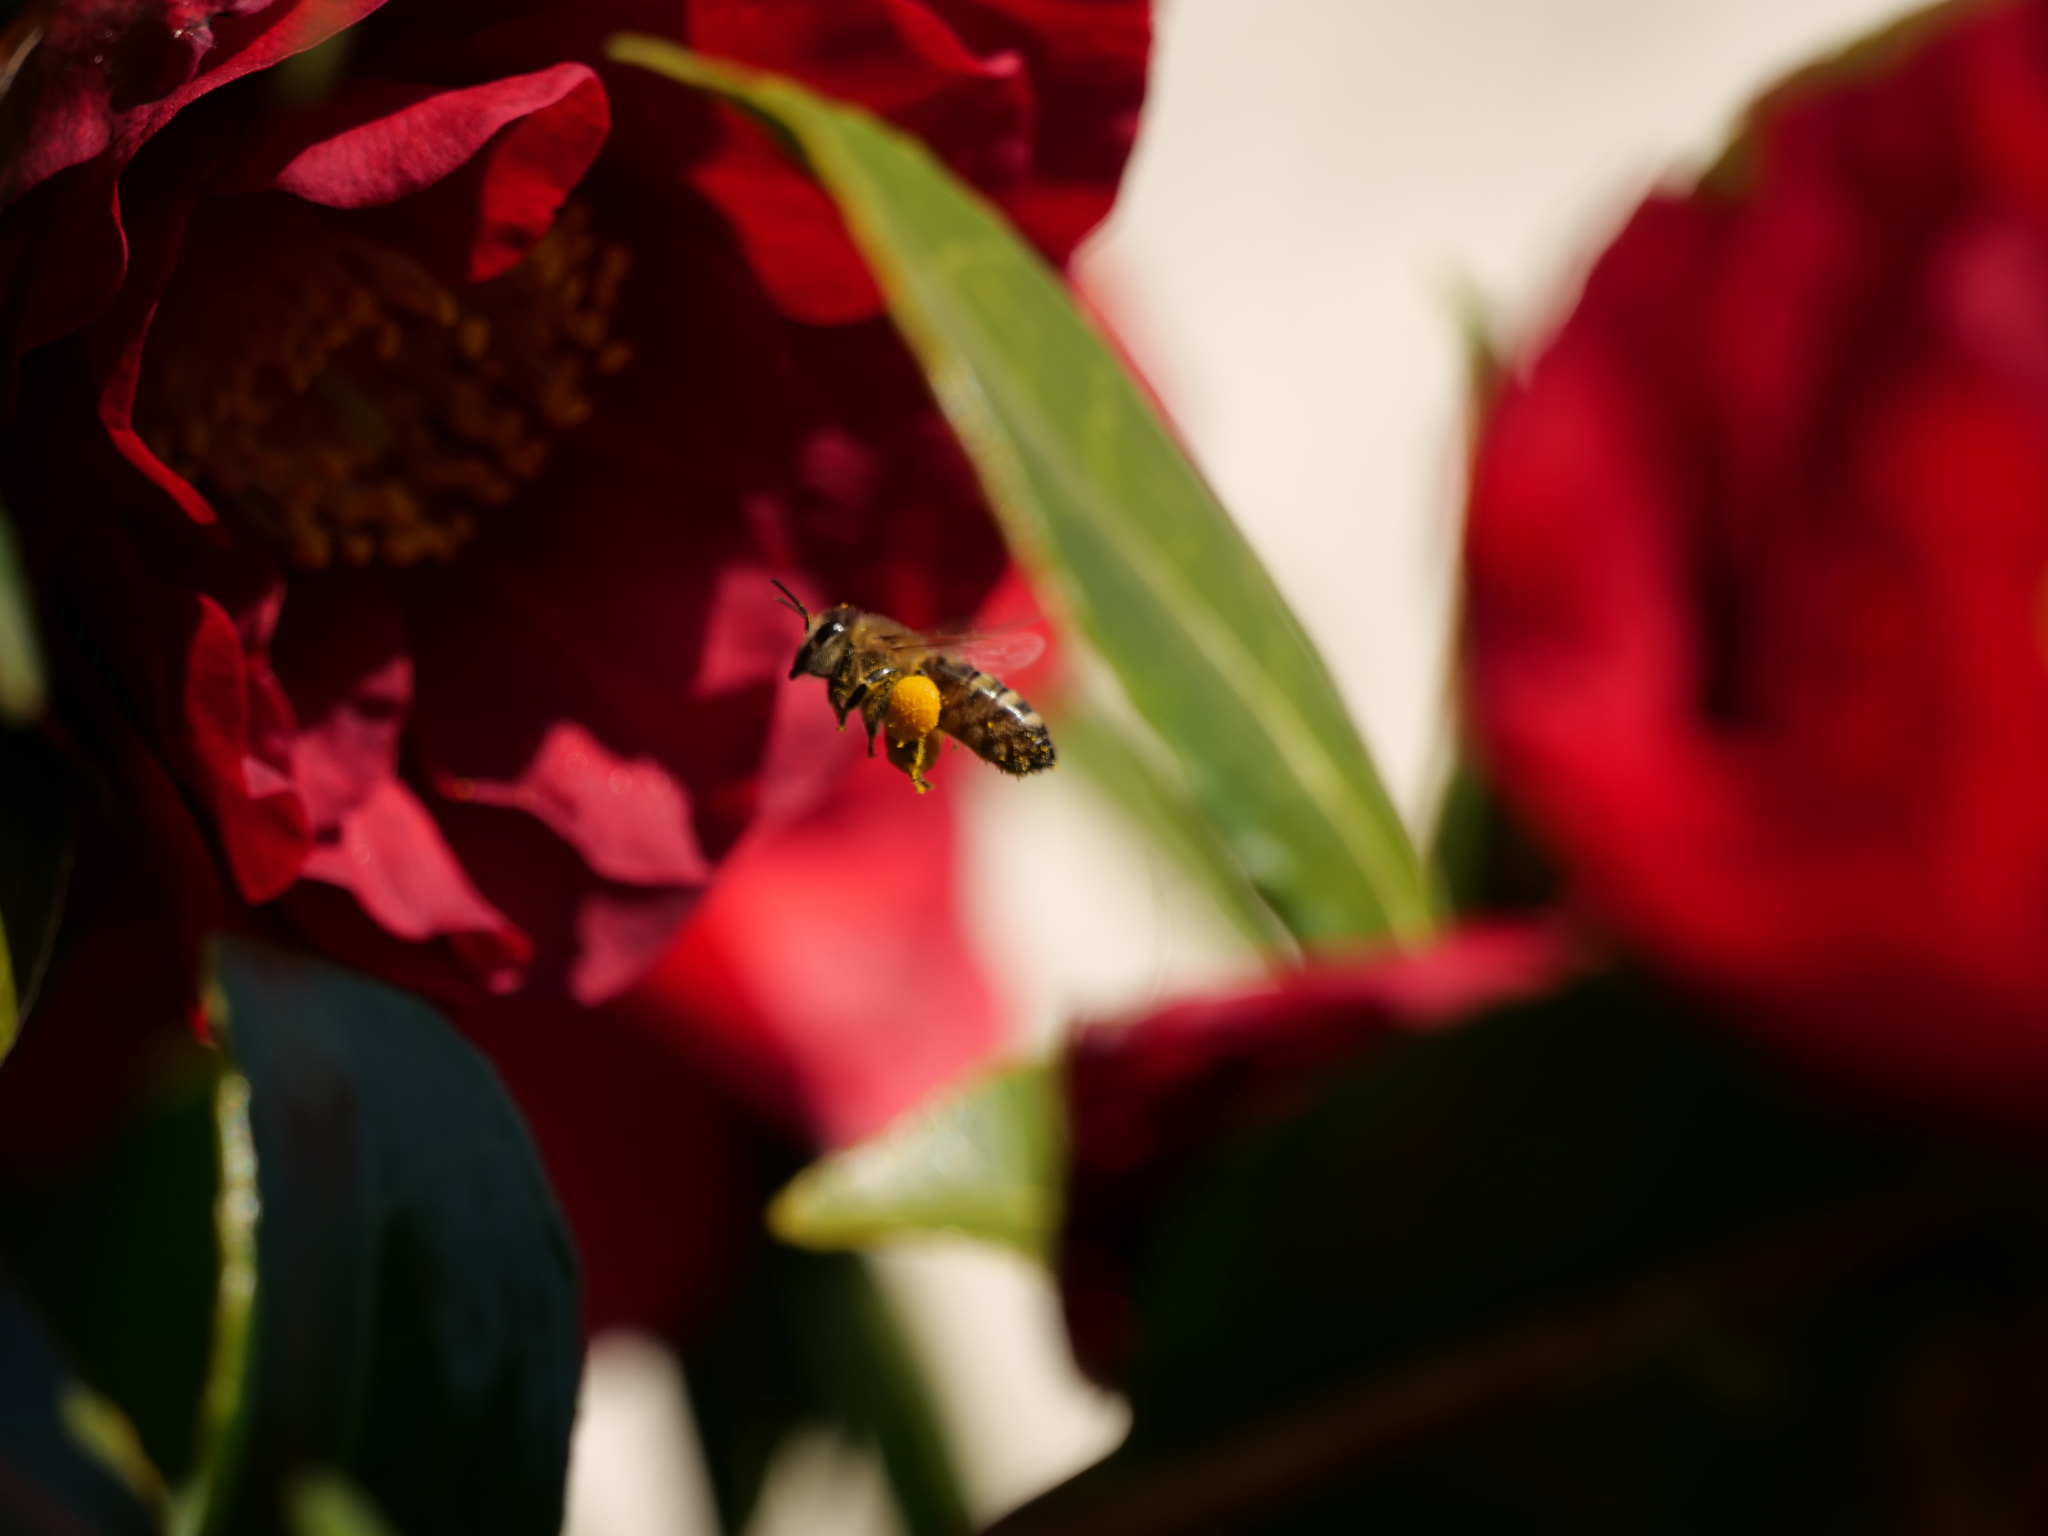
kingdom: Animalia
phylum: Arthropoda
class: Insecta
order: Hymenoptera
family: Apidae
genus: Apis
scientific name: Apis mellifera
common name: Honey bee
